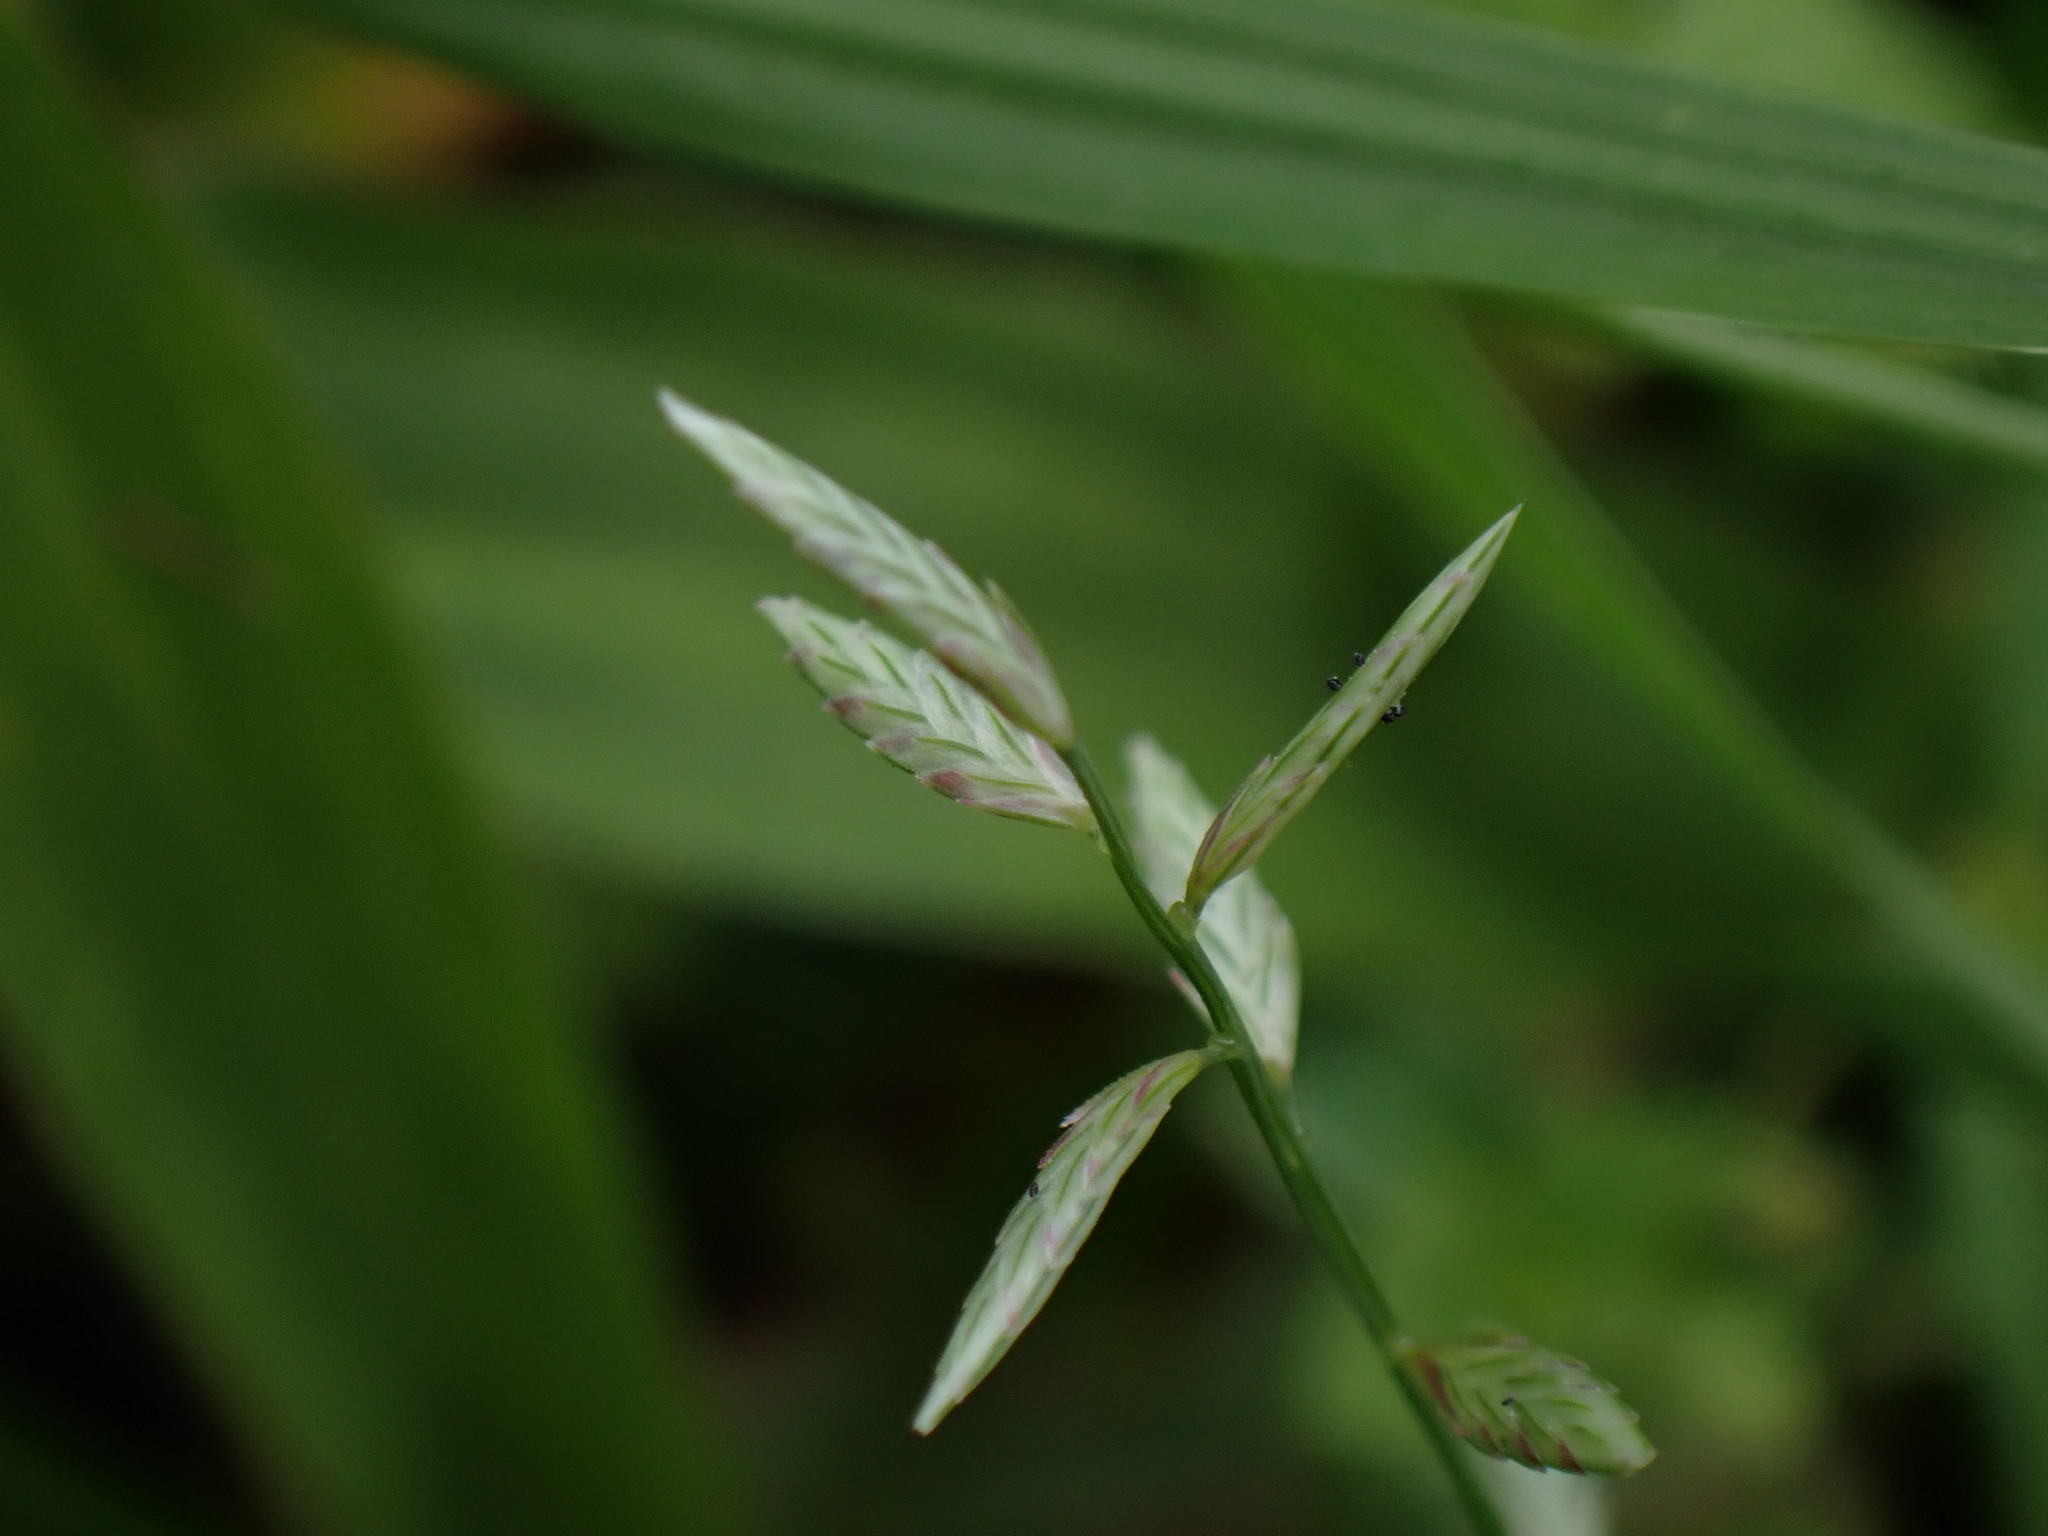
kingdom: Plantae
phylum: Tracheophyta
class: Liliopsida
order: Poales
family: Poaceae
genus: Eragrostis
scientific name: Eragrostis cumingii
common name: Cuming's lovegrass
